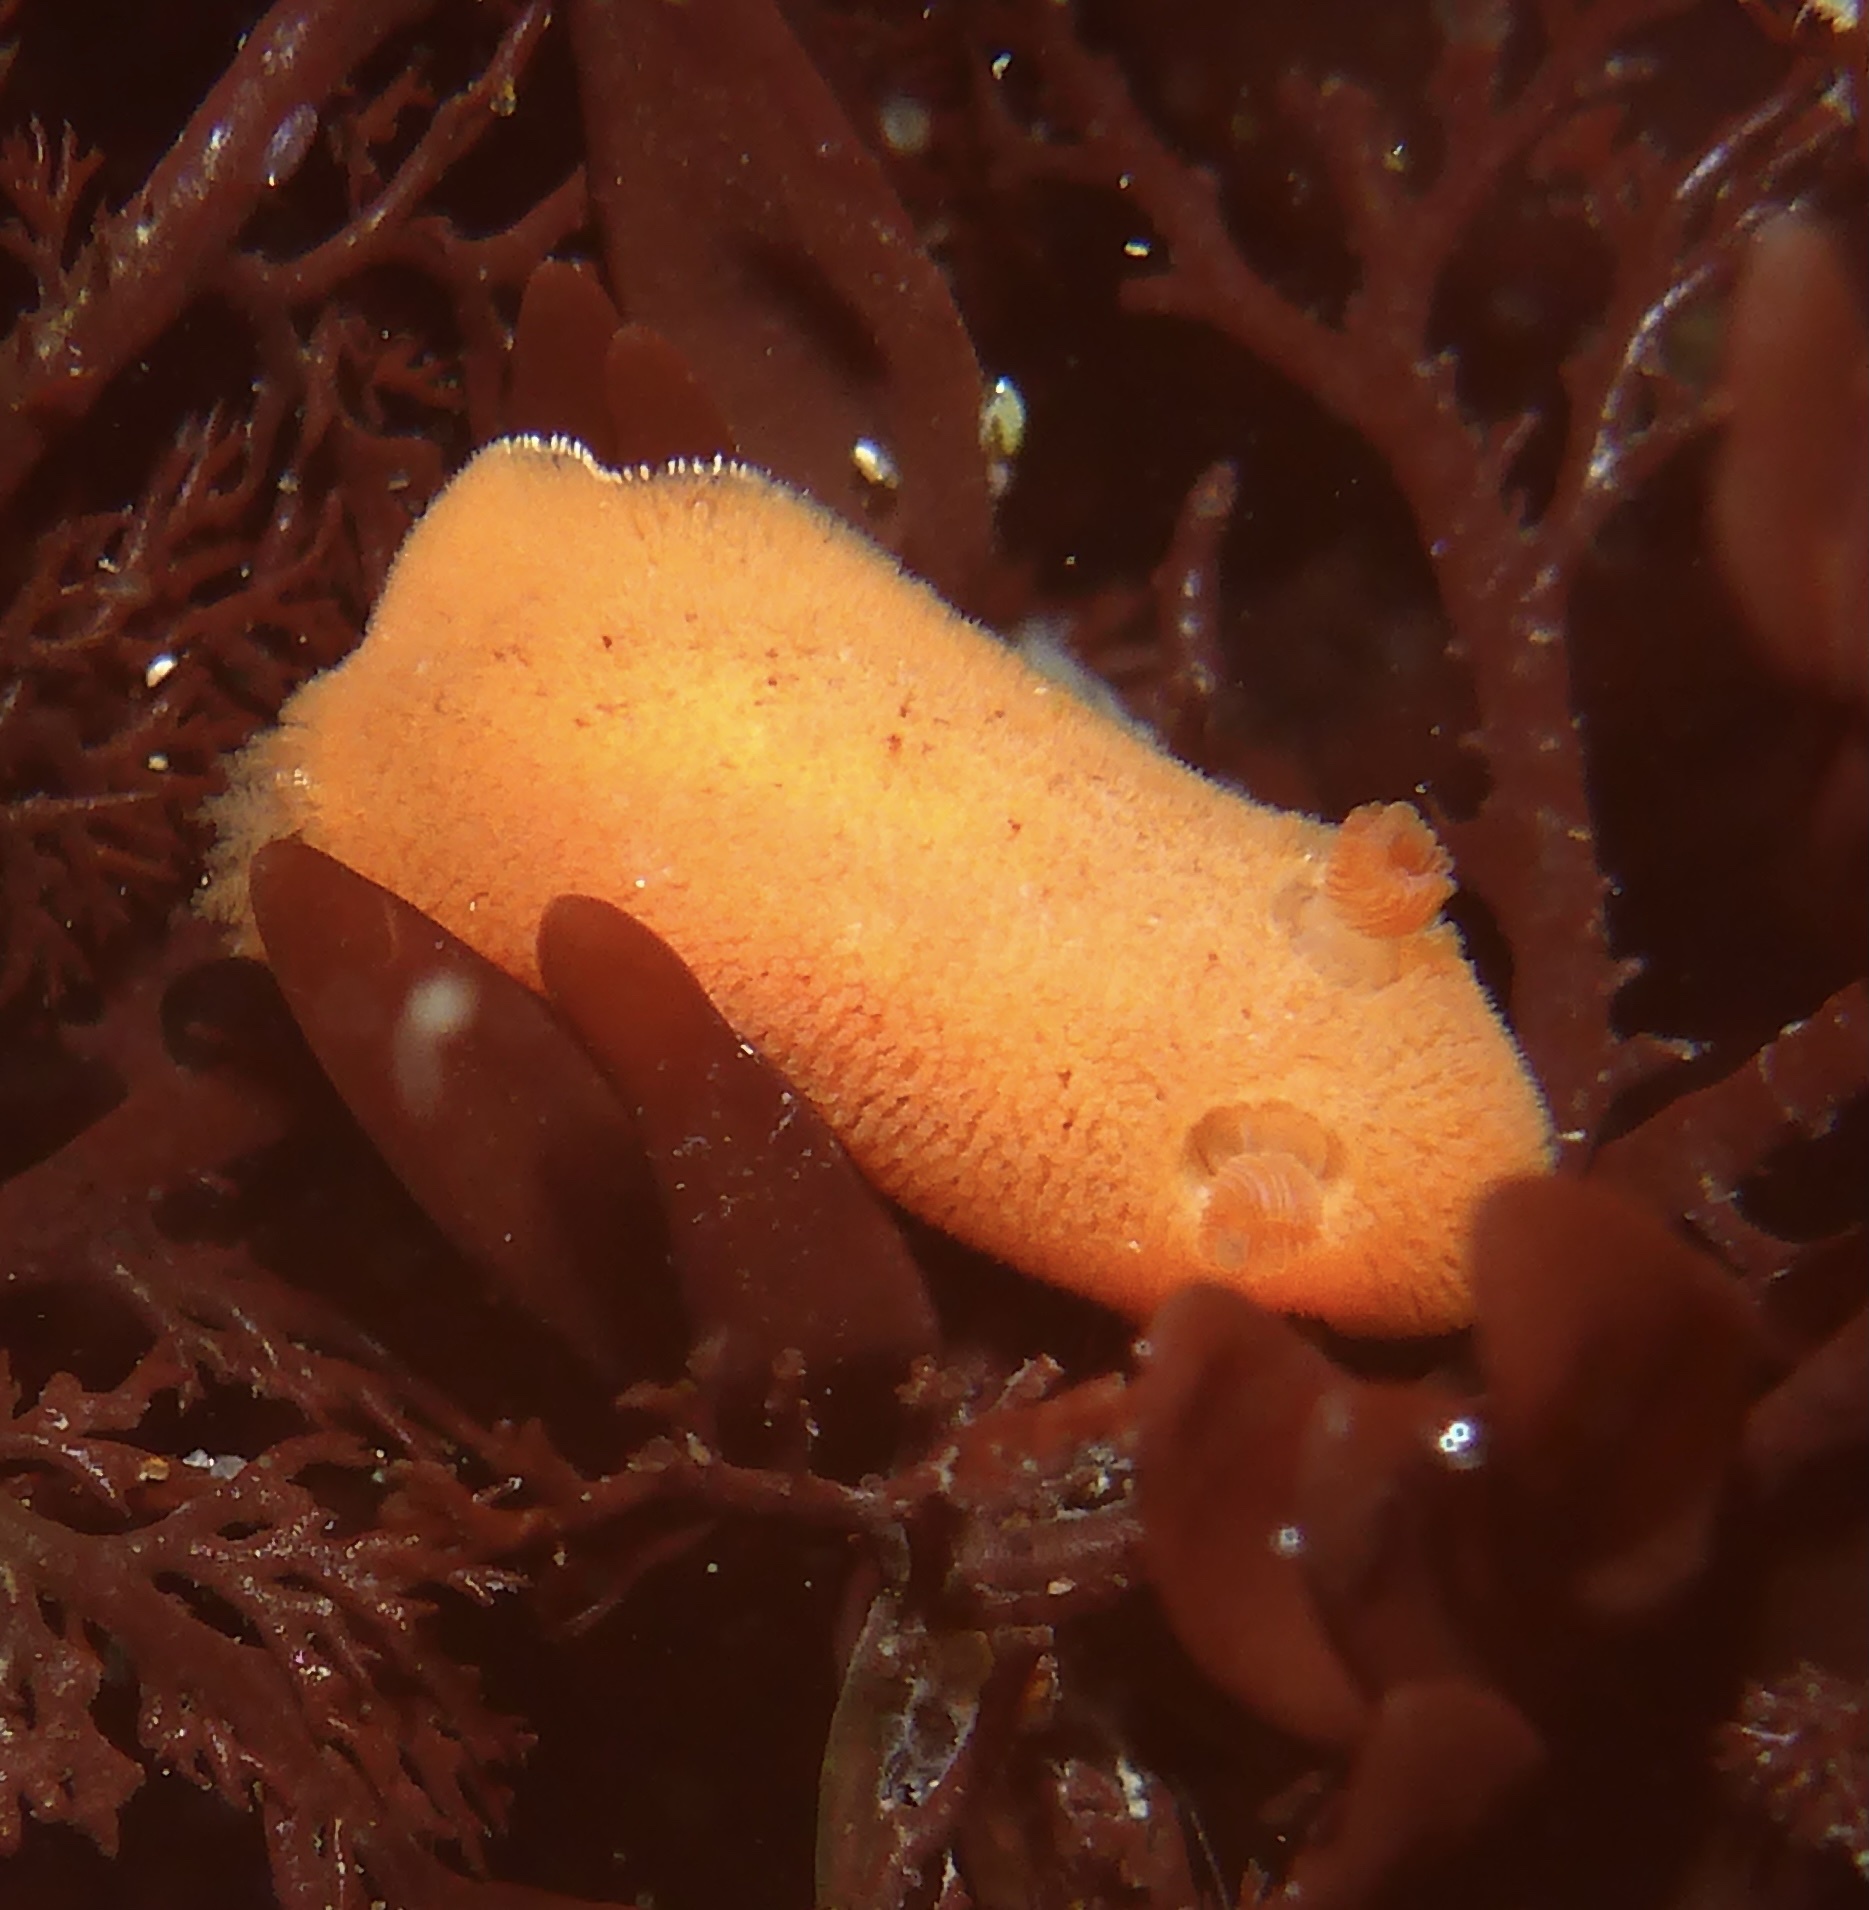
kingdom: Animalia
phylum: Mollusca
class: Gastropoda
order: Nudibranchia
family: Discodorididae
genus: Rostanga
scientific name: Rostanga pulchra
